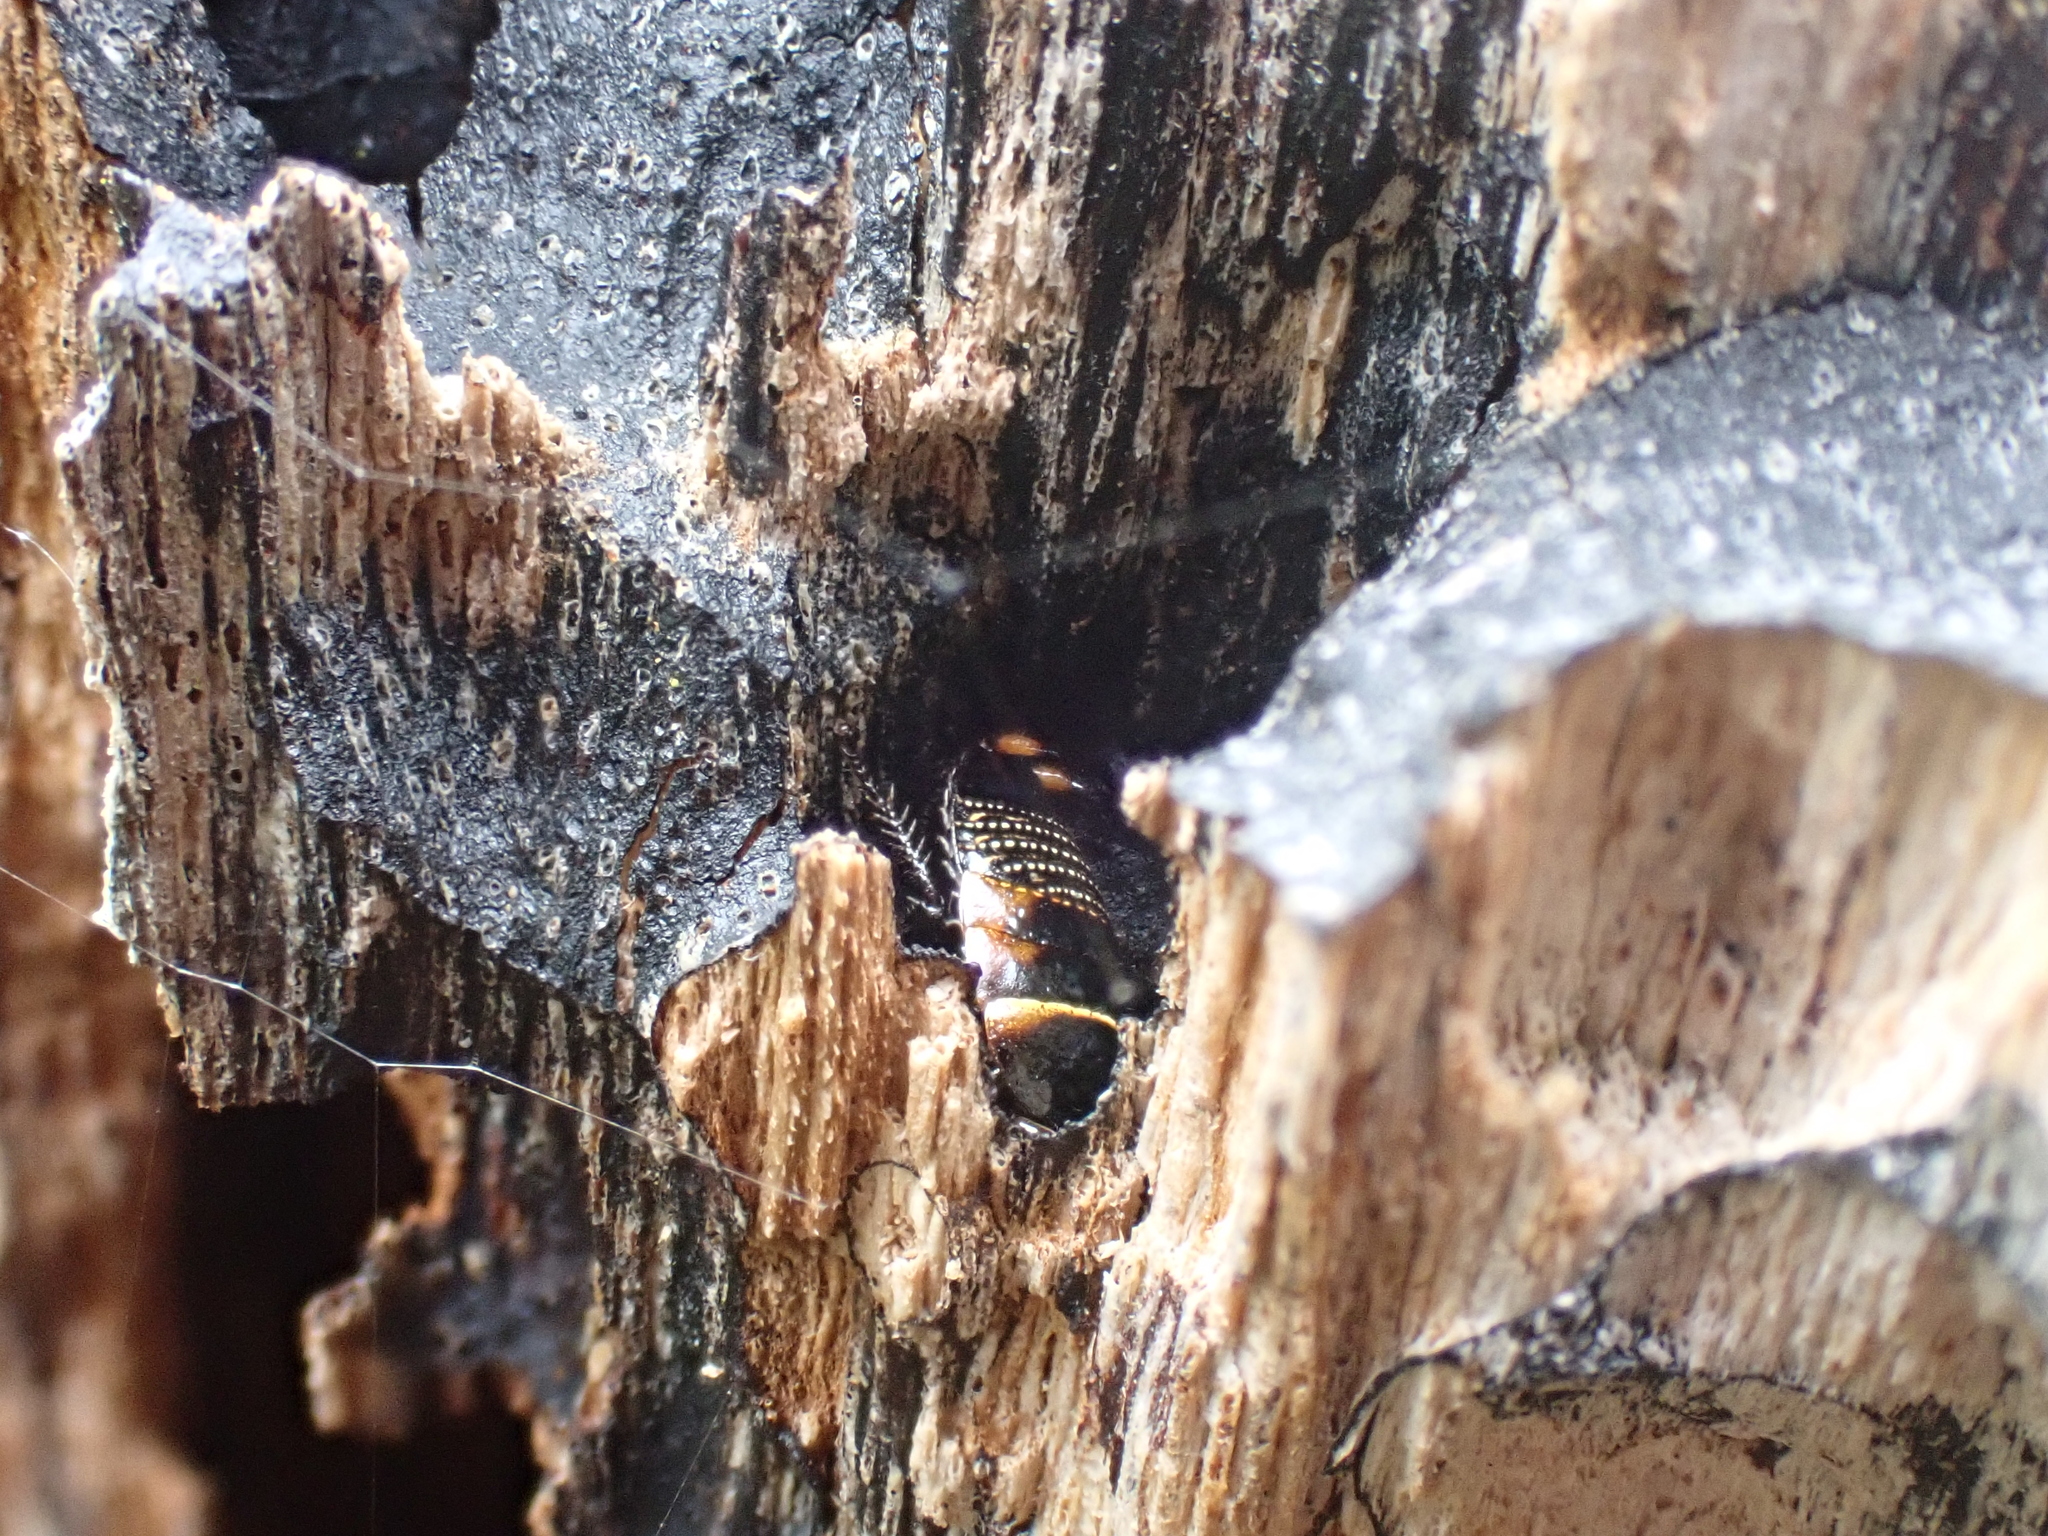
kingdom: Animalia
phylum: Arthropoda
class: Insecta
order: Blattodea
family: Ectobiidae
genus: Ellipsidion
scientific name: Ellipsidion australe
